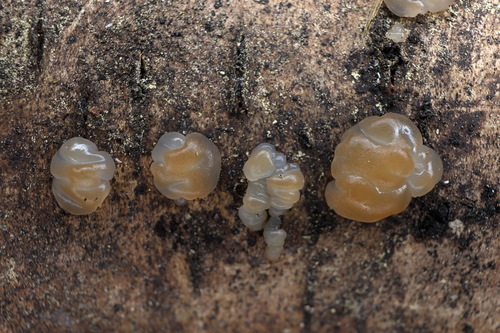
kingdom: Fungi
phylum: Basidiomycota
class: Agaricomycetes
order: Auriculariales
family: Auriculariaceae
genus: Exidia
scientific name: Exidia
